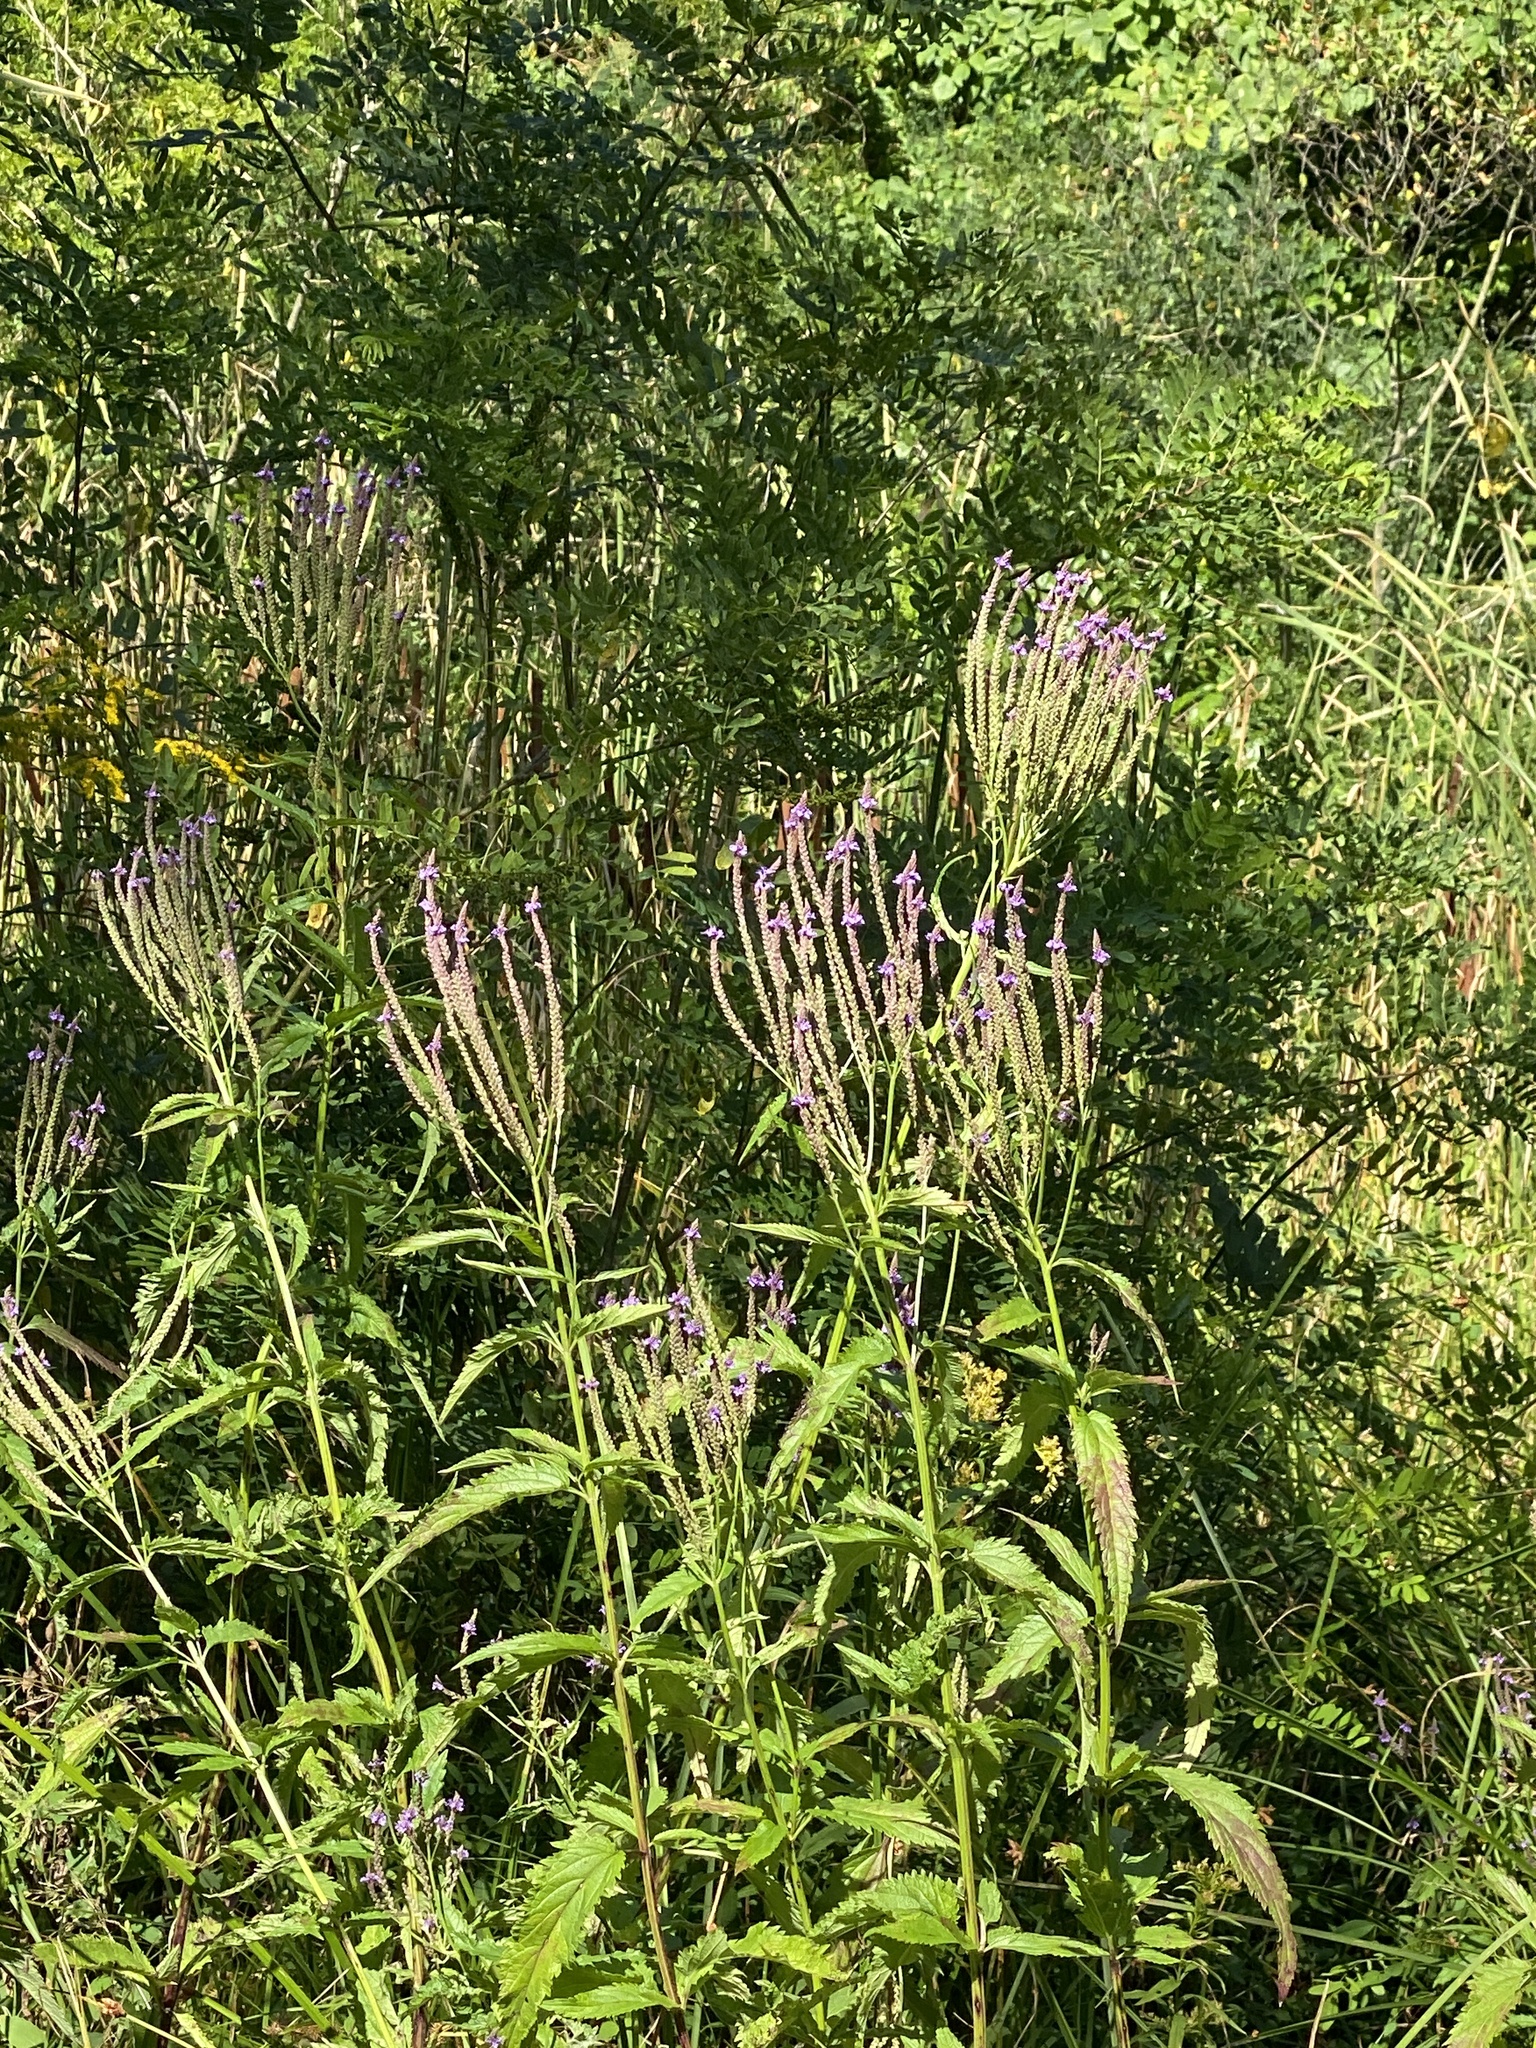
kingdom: Plantae
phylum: Tracheophyta
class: Magnoliopsida
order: Lamiales
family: Verbenaceae
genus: Verbena
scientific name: Verbena hastata
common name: American blue vervain
